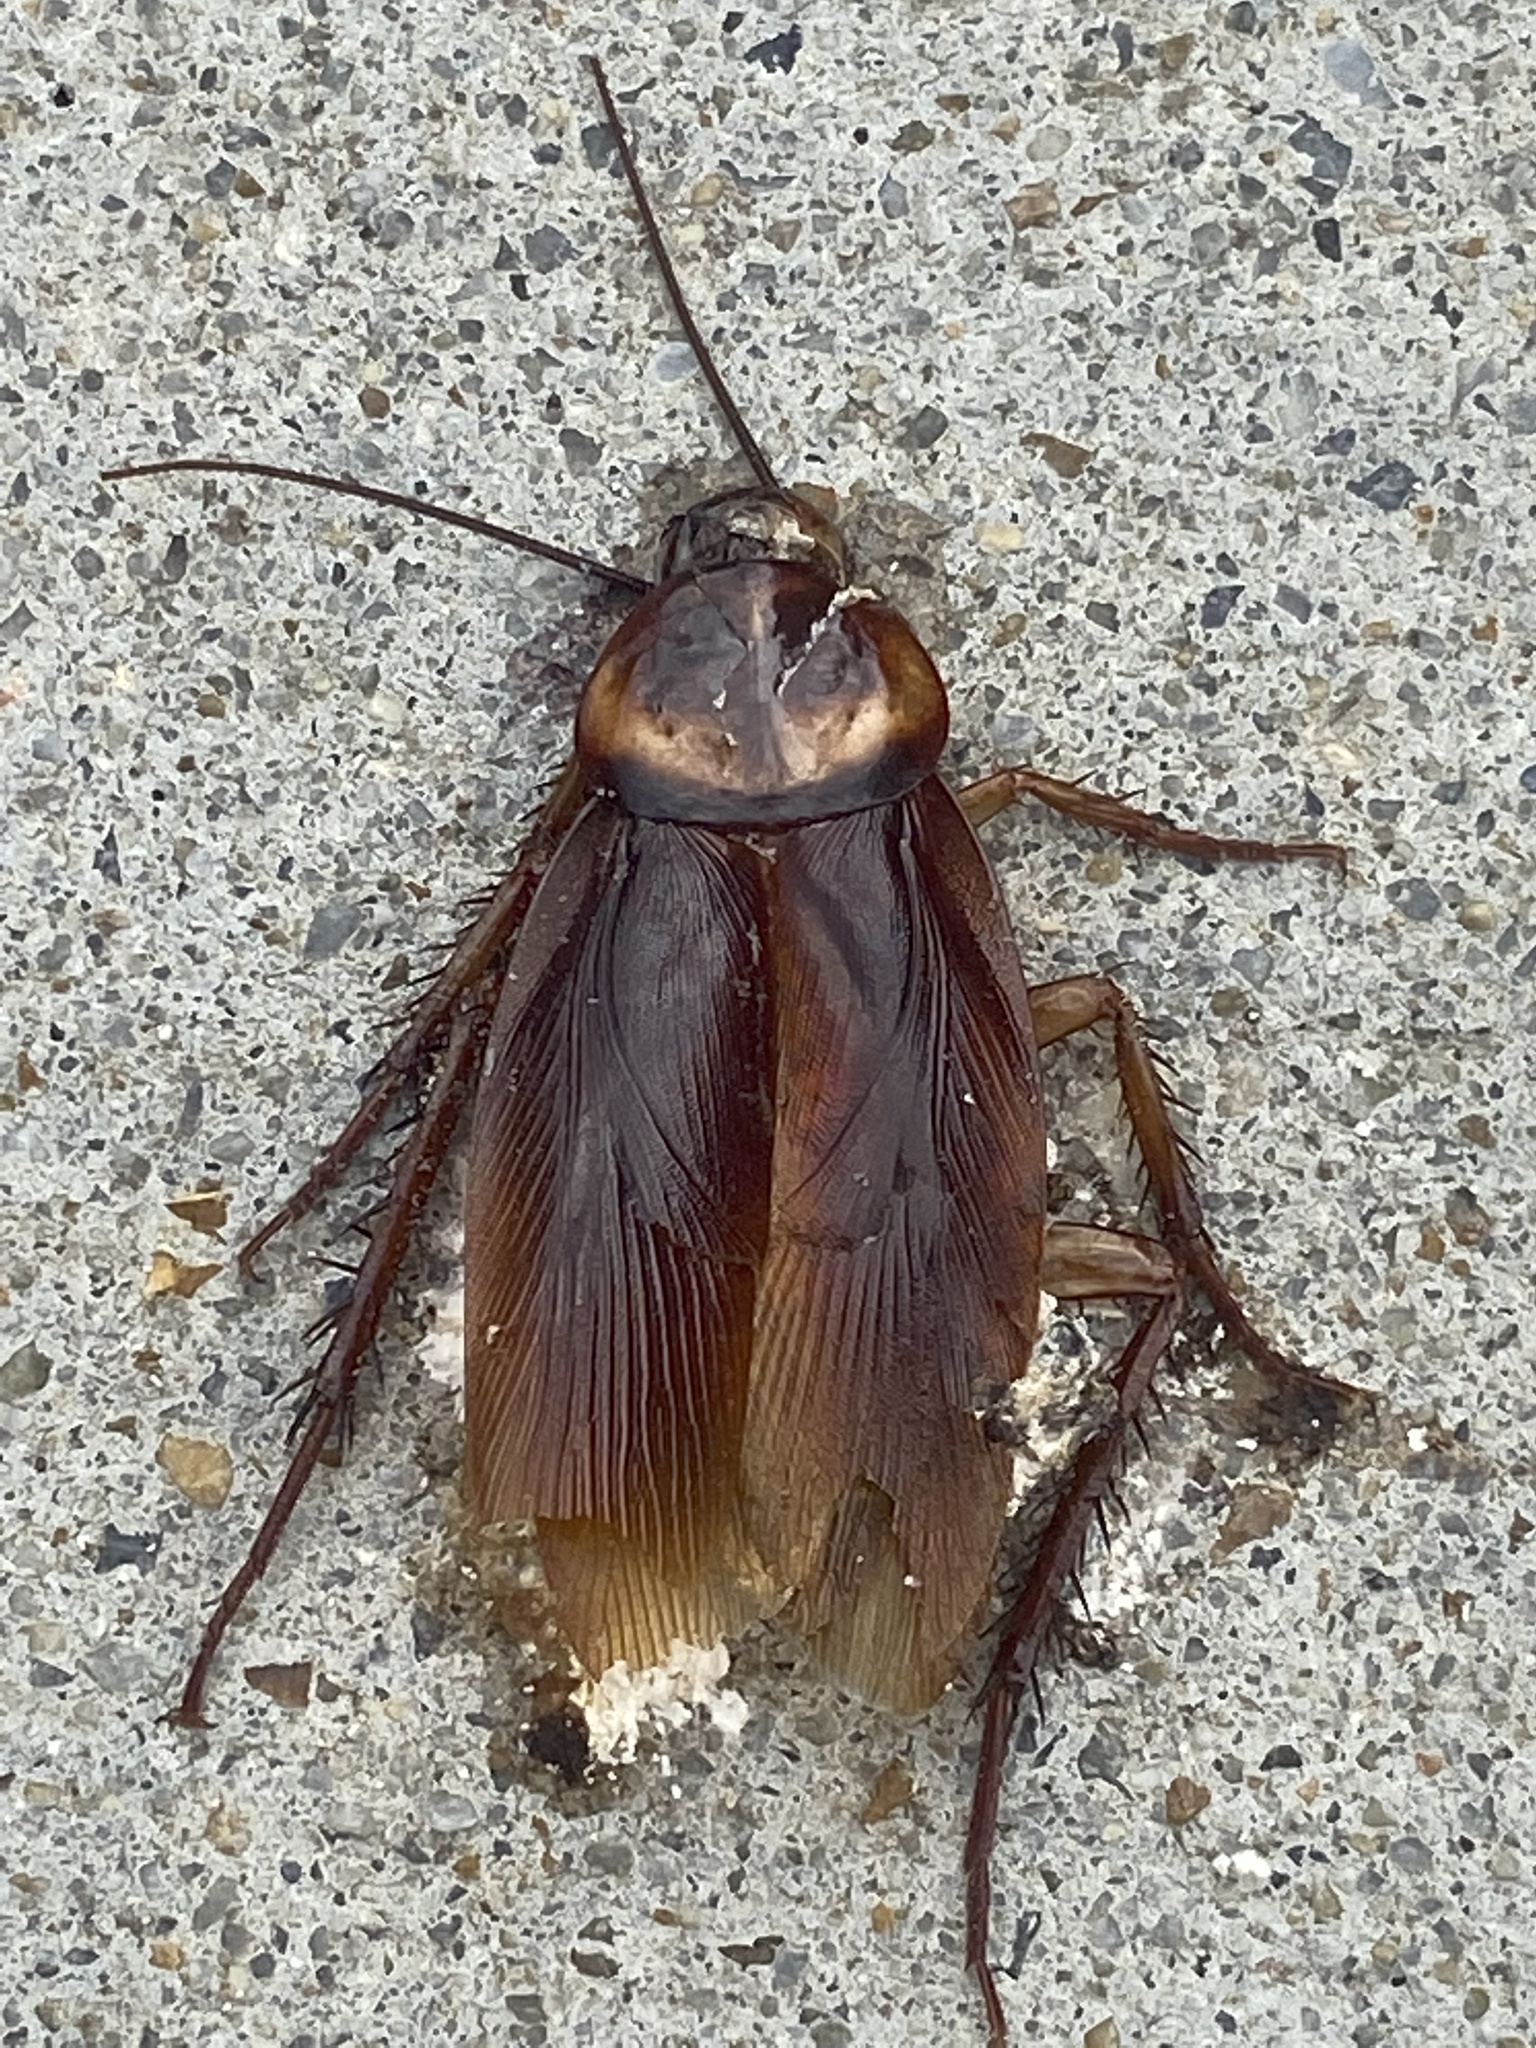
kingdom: Animalia
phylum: Arthropoda
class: Insecta
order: Blattodea
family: Blattidae
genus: Periplaneta
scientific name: Periplaneta americana
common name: American cockroach
